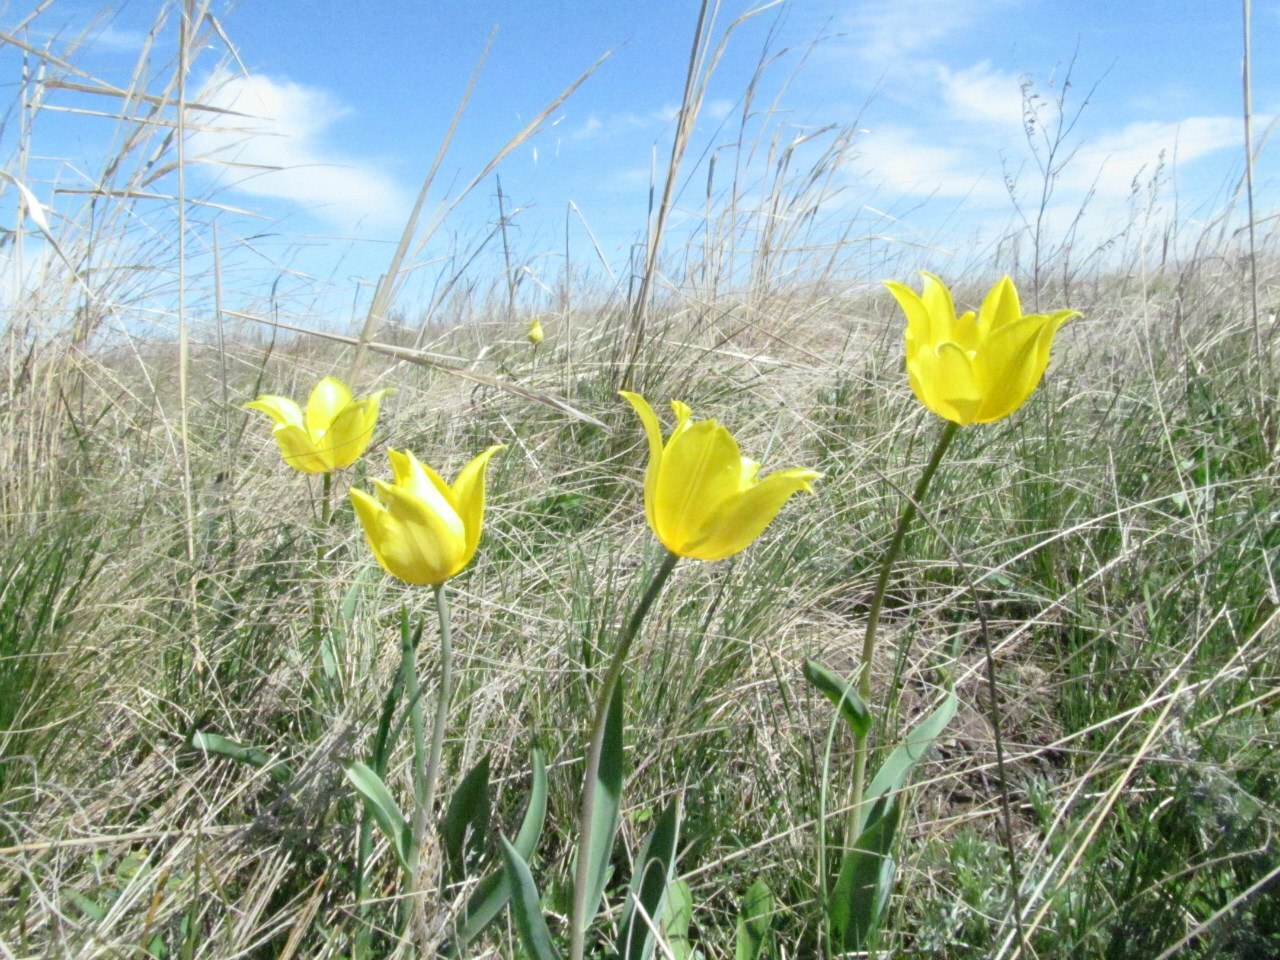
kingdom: Plantae
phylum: Tracheophyta
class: Liliopsida
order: Liliales
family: Liliaceae
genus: Tulipa
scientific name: Tulipa suaveolens
